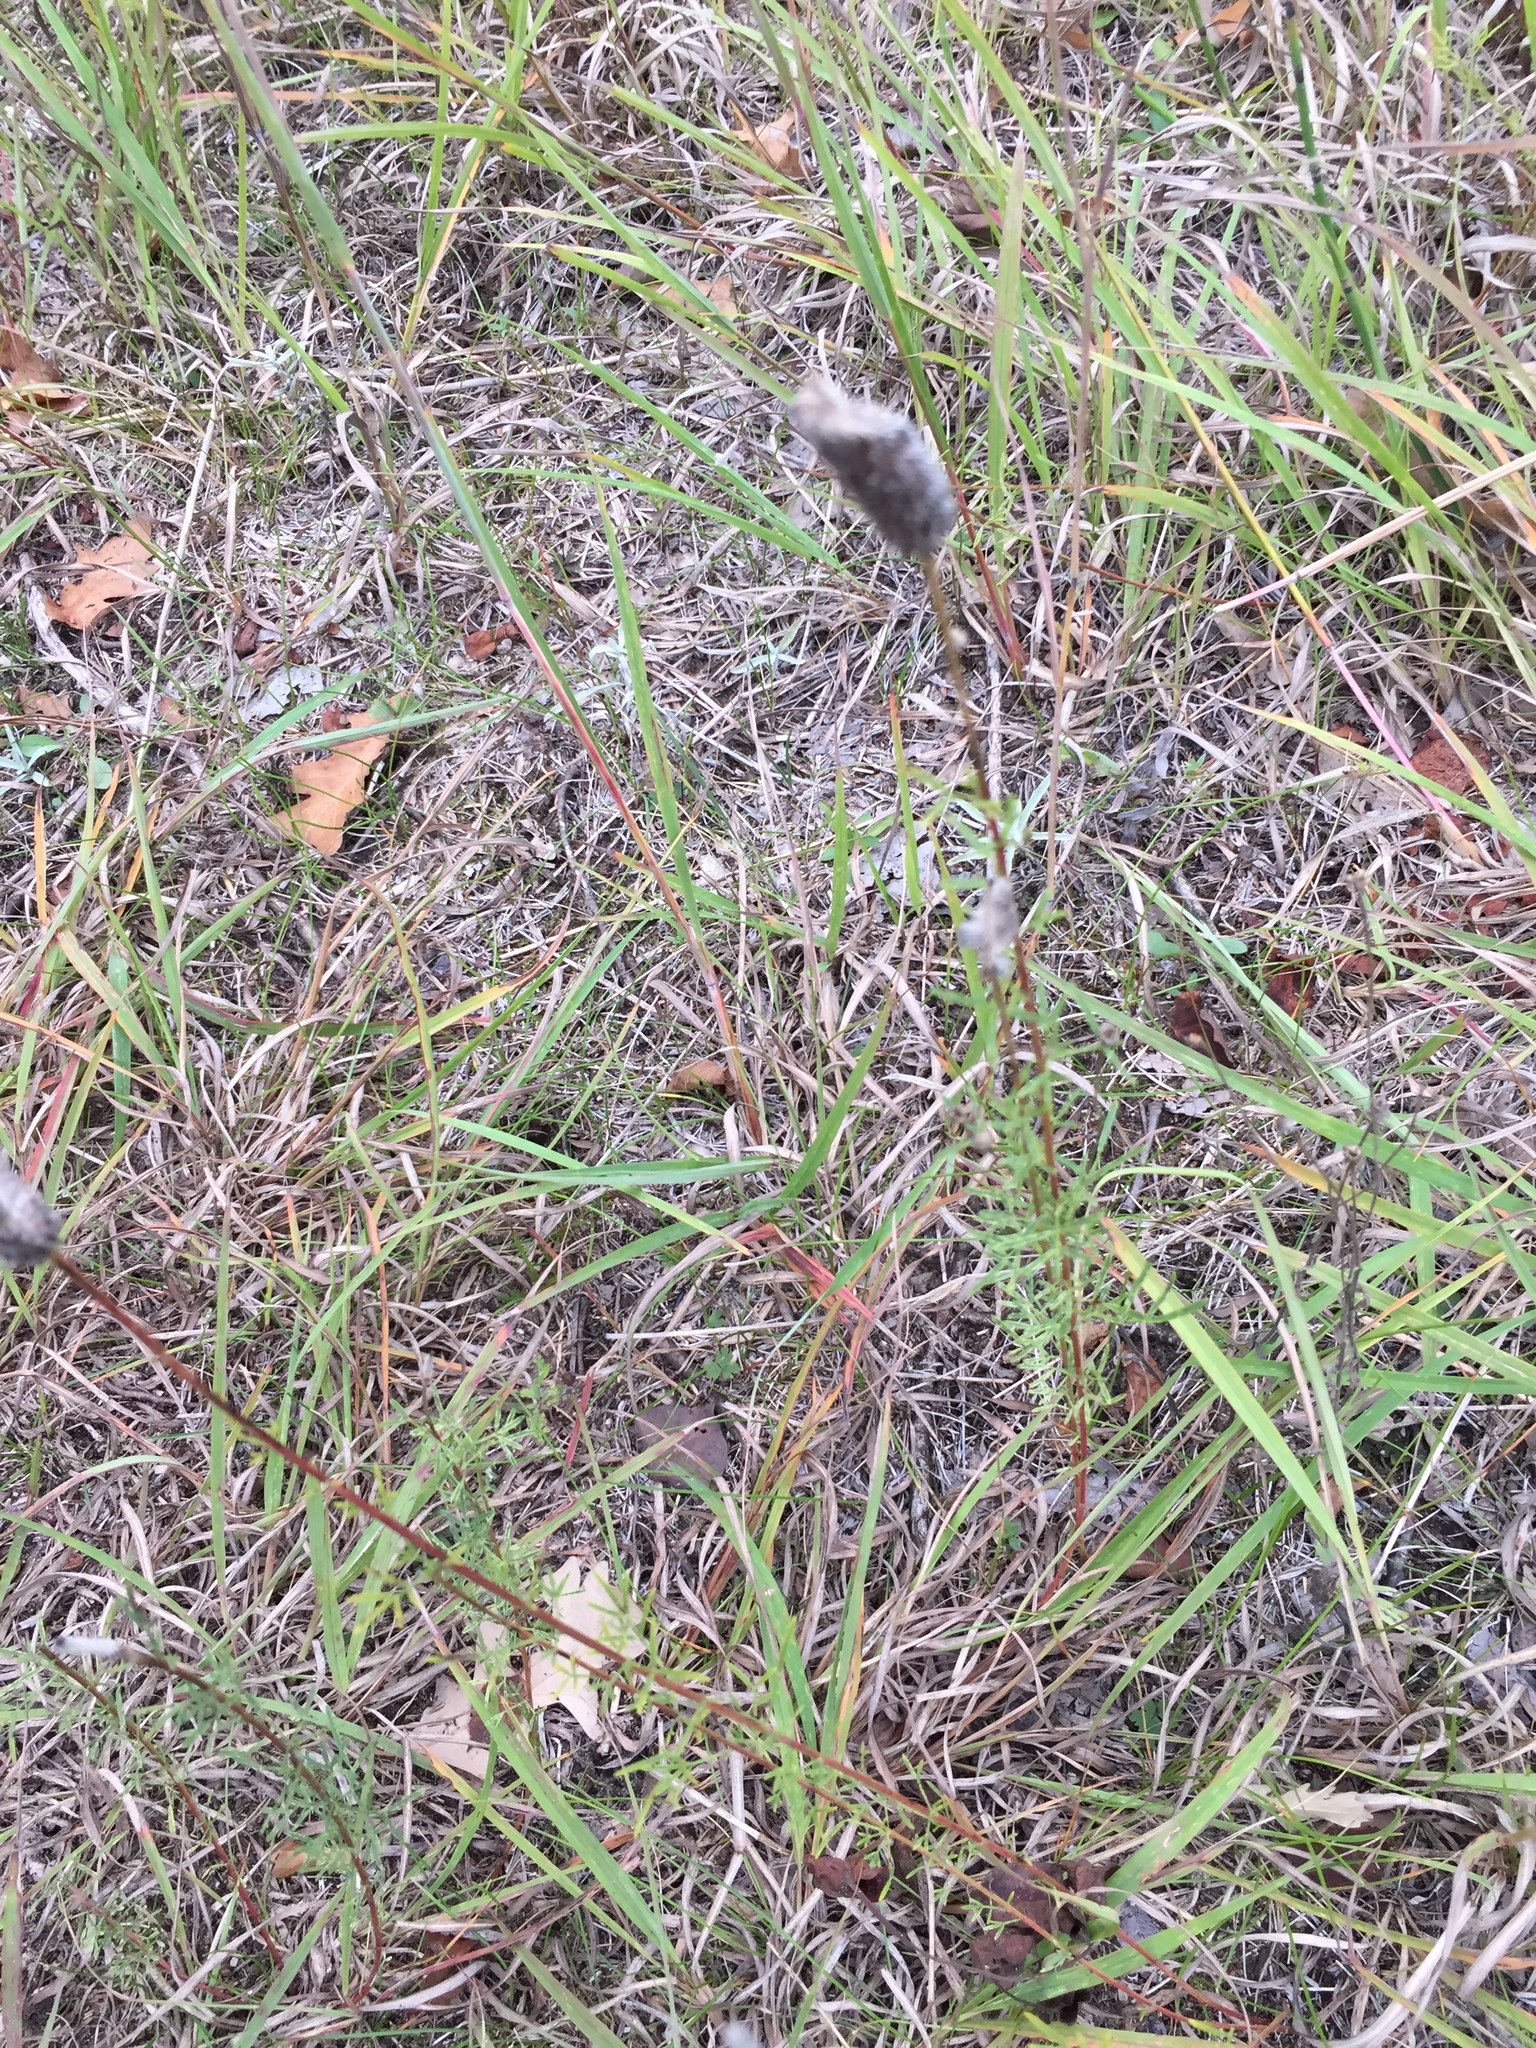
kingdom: Plantae
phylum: Tracheophyta
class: Magnoliopsida
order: Fabales
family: Fabaceae
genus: Dalea
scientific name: Dalea purpurea
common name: Purple prairie-clover
